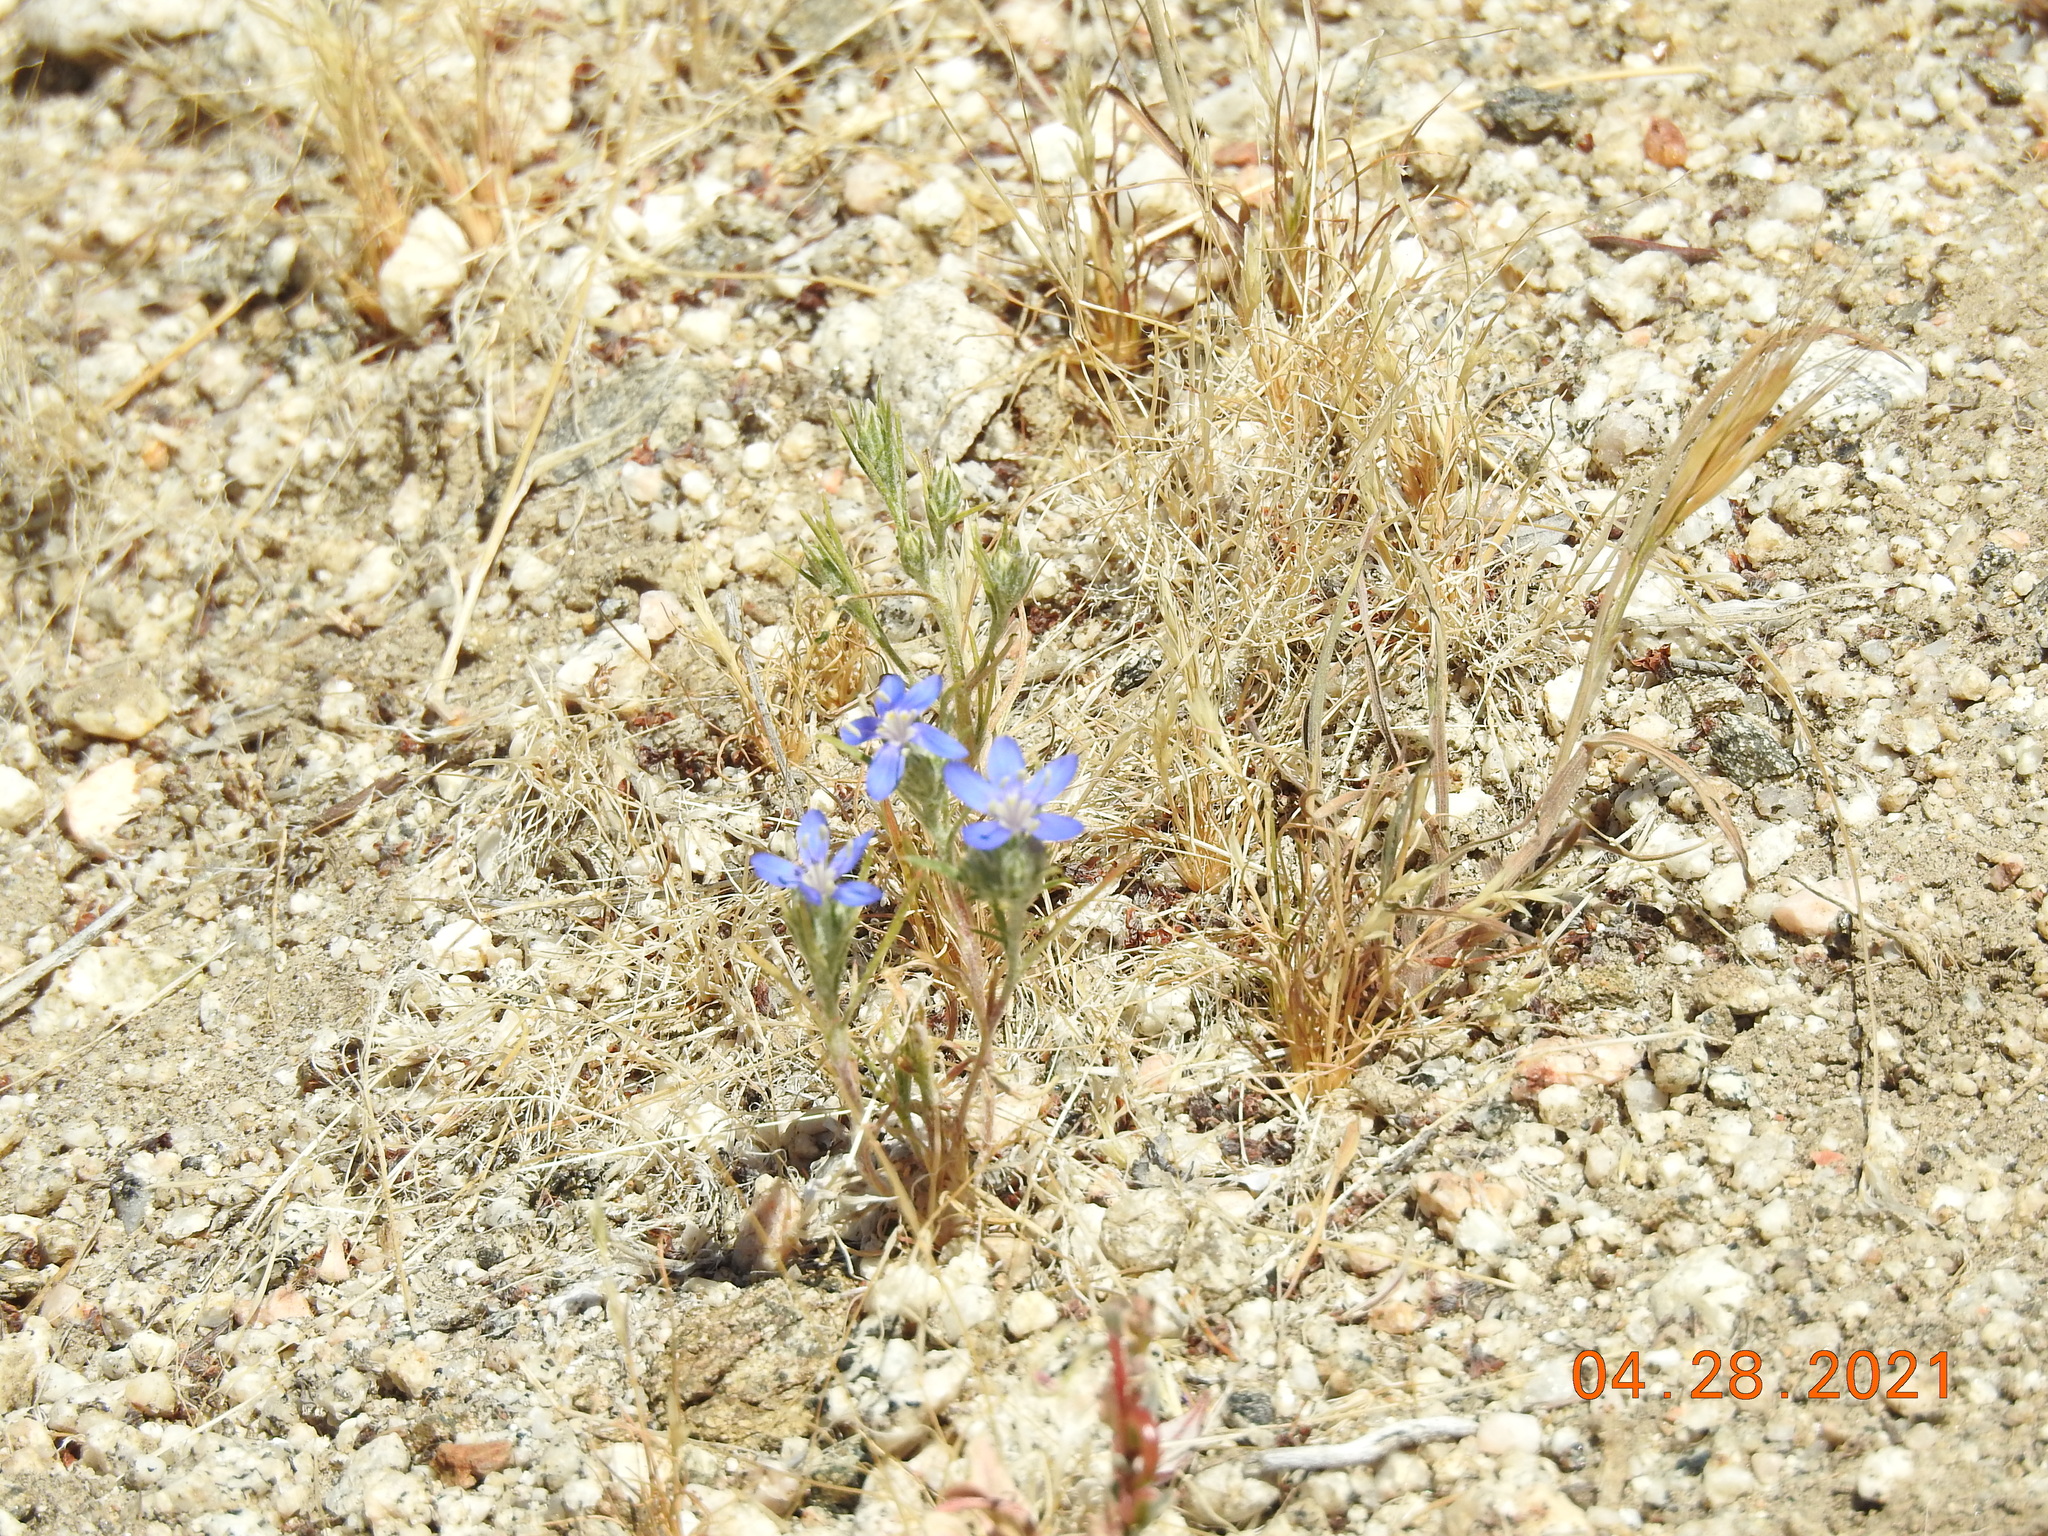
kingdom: Plantae
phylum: Tracheophyta
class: Magnoliopsida
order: Ericales
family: Polemoniaceae
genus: Eriastrum
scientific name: Eriastrum sapphirinum
